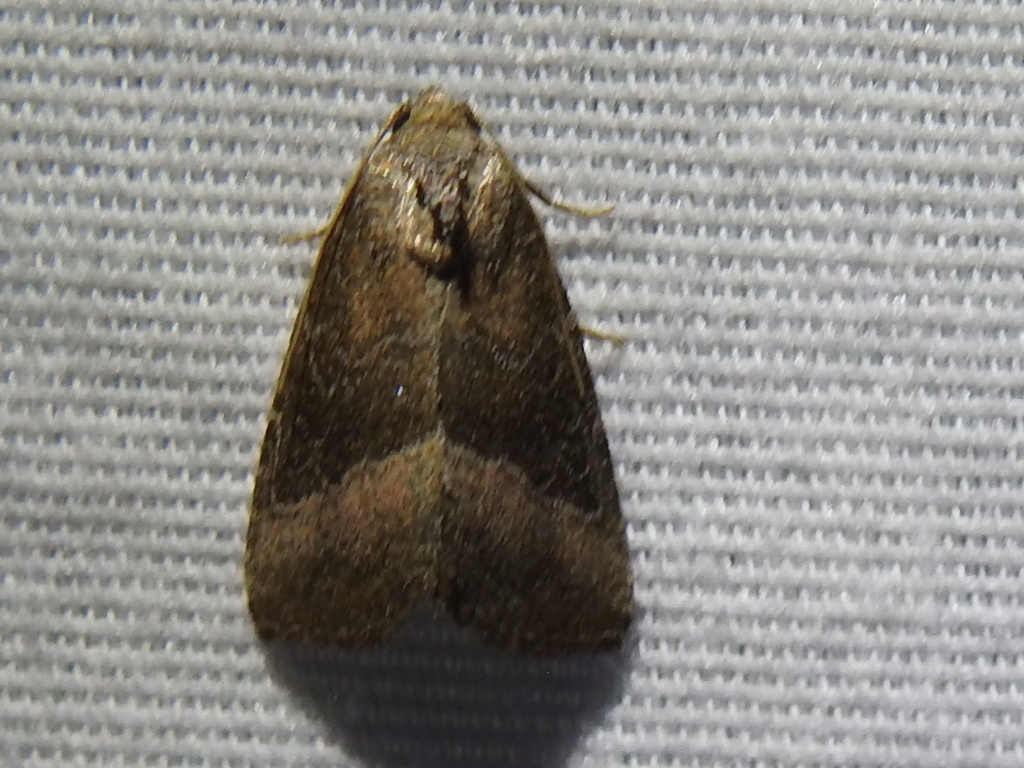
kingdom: Animalia
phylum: Arthropoda
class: Insecta
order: Lepidoptera
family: Noctuidae
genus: Ogdoconta
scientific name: Ogdoconta cinereola
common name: Common pinkband
